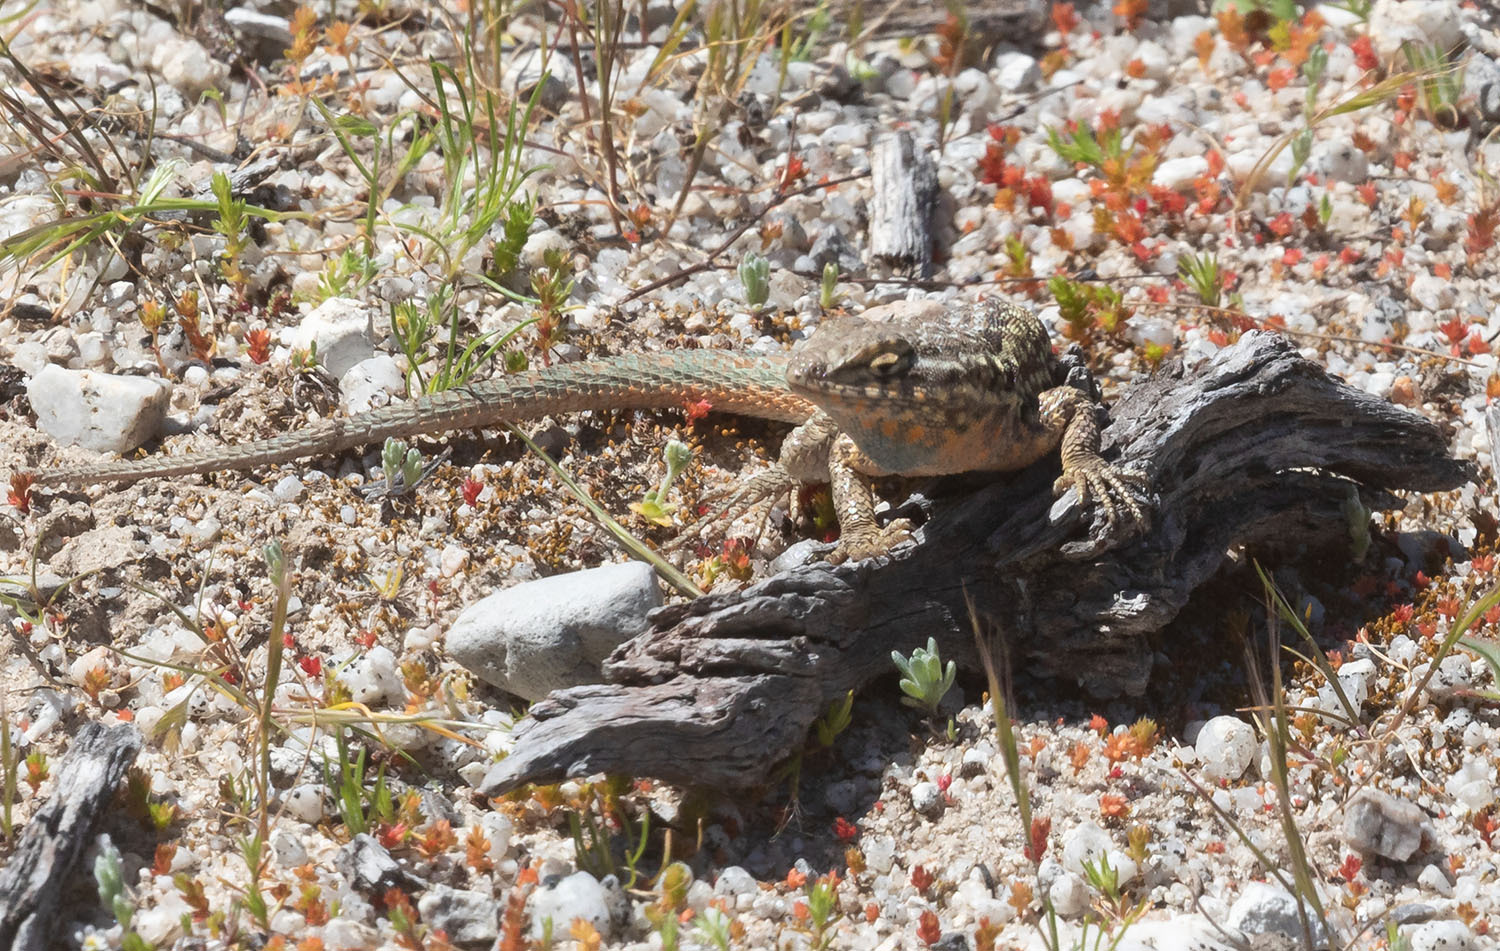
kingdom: Animalia
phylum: Chordata
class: Squamata
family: Phrynosomatidae
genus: Uta
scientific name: Uta stansburiana
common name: Side-blotched lizard
